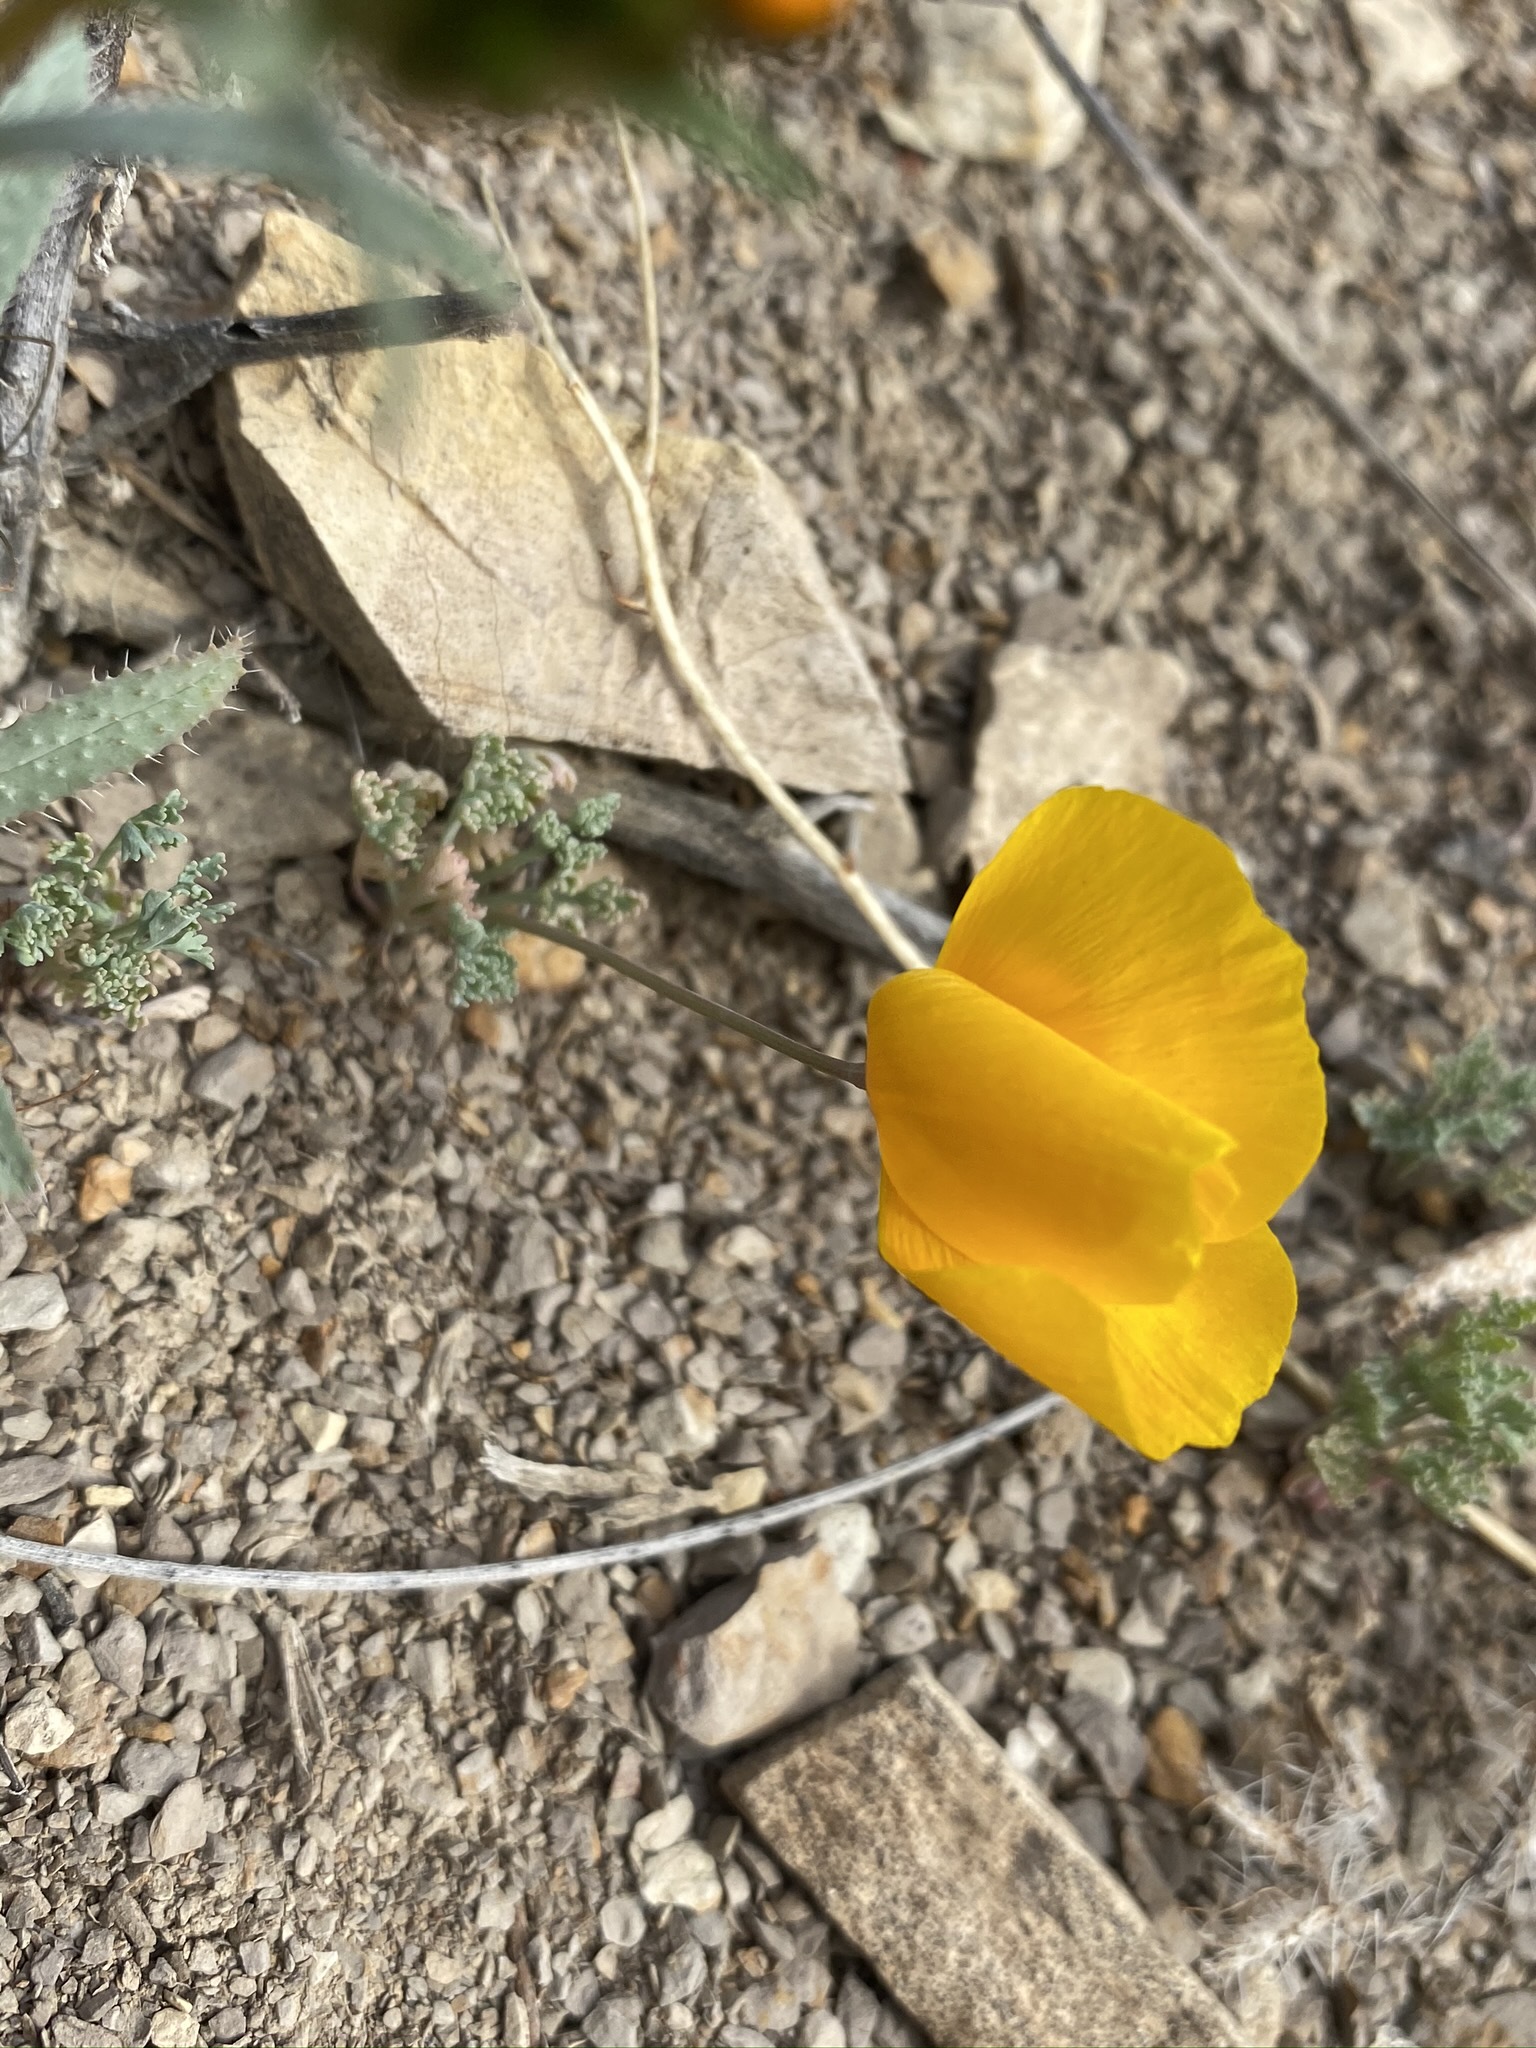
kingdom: Plantae
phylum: Tracheophyta
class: Magnoliopsida
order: Ranunculales
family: Papaveraceae
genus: Eschscholzia
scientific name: Eschscholzia
